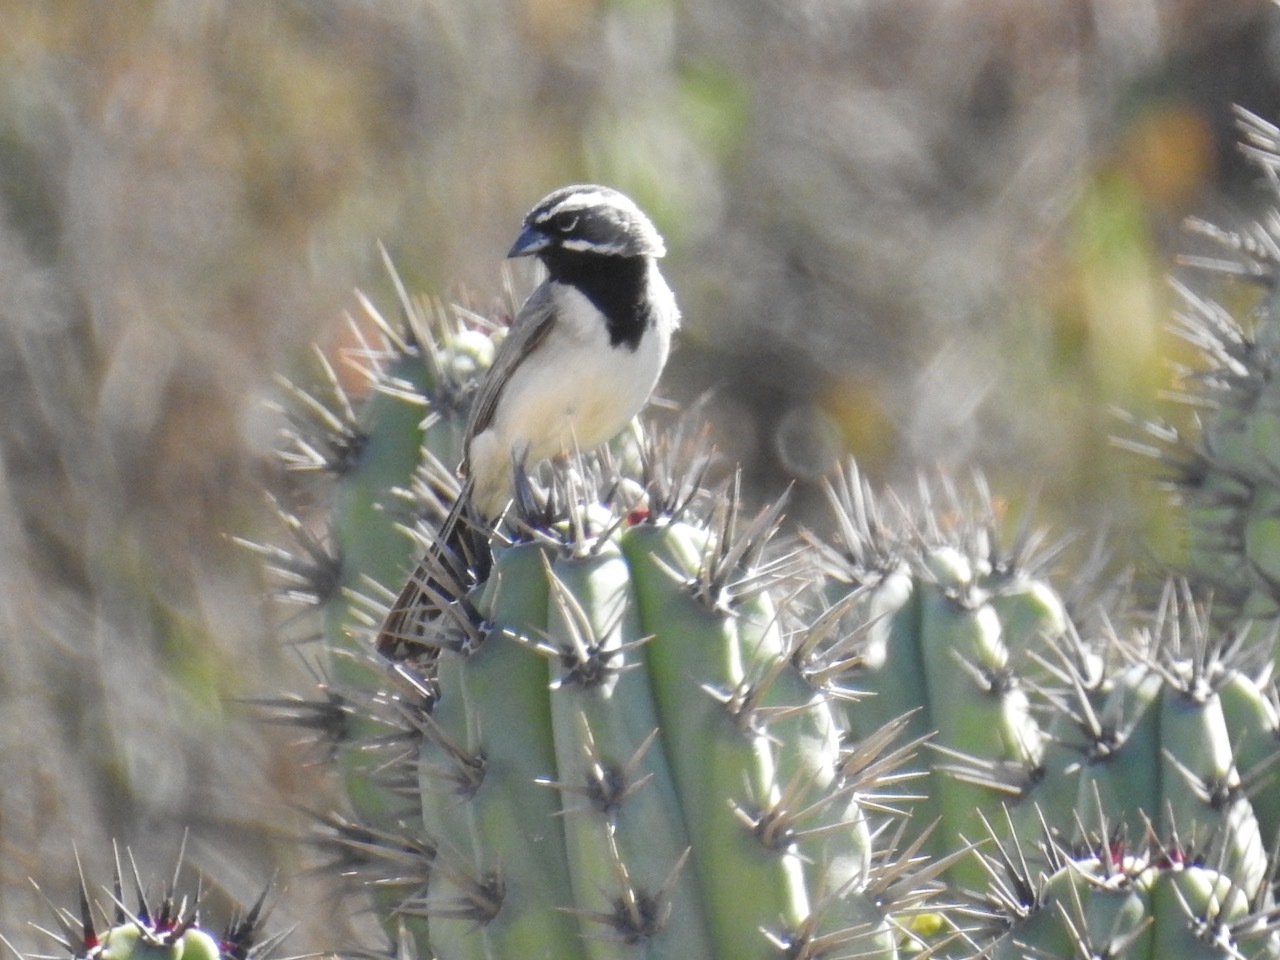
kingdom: Animalia
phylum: Chordata
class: Aves
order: Passeriformes
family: Passerellidae
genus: Amphispiza
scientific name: Amphispiza bilineata
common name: Black-throated sparrow
